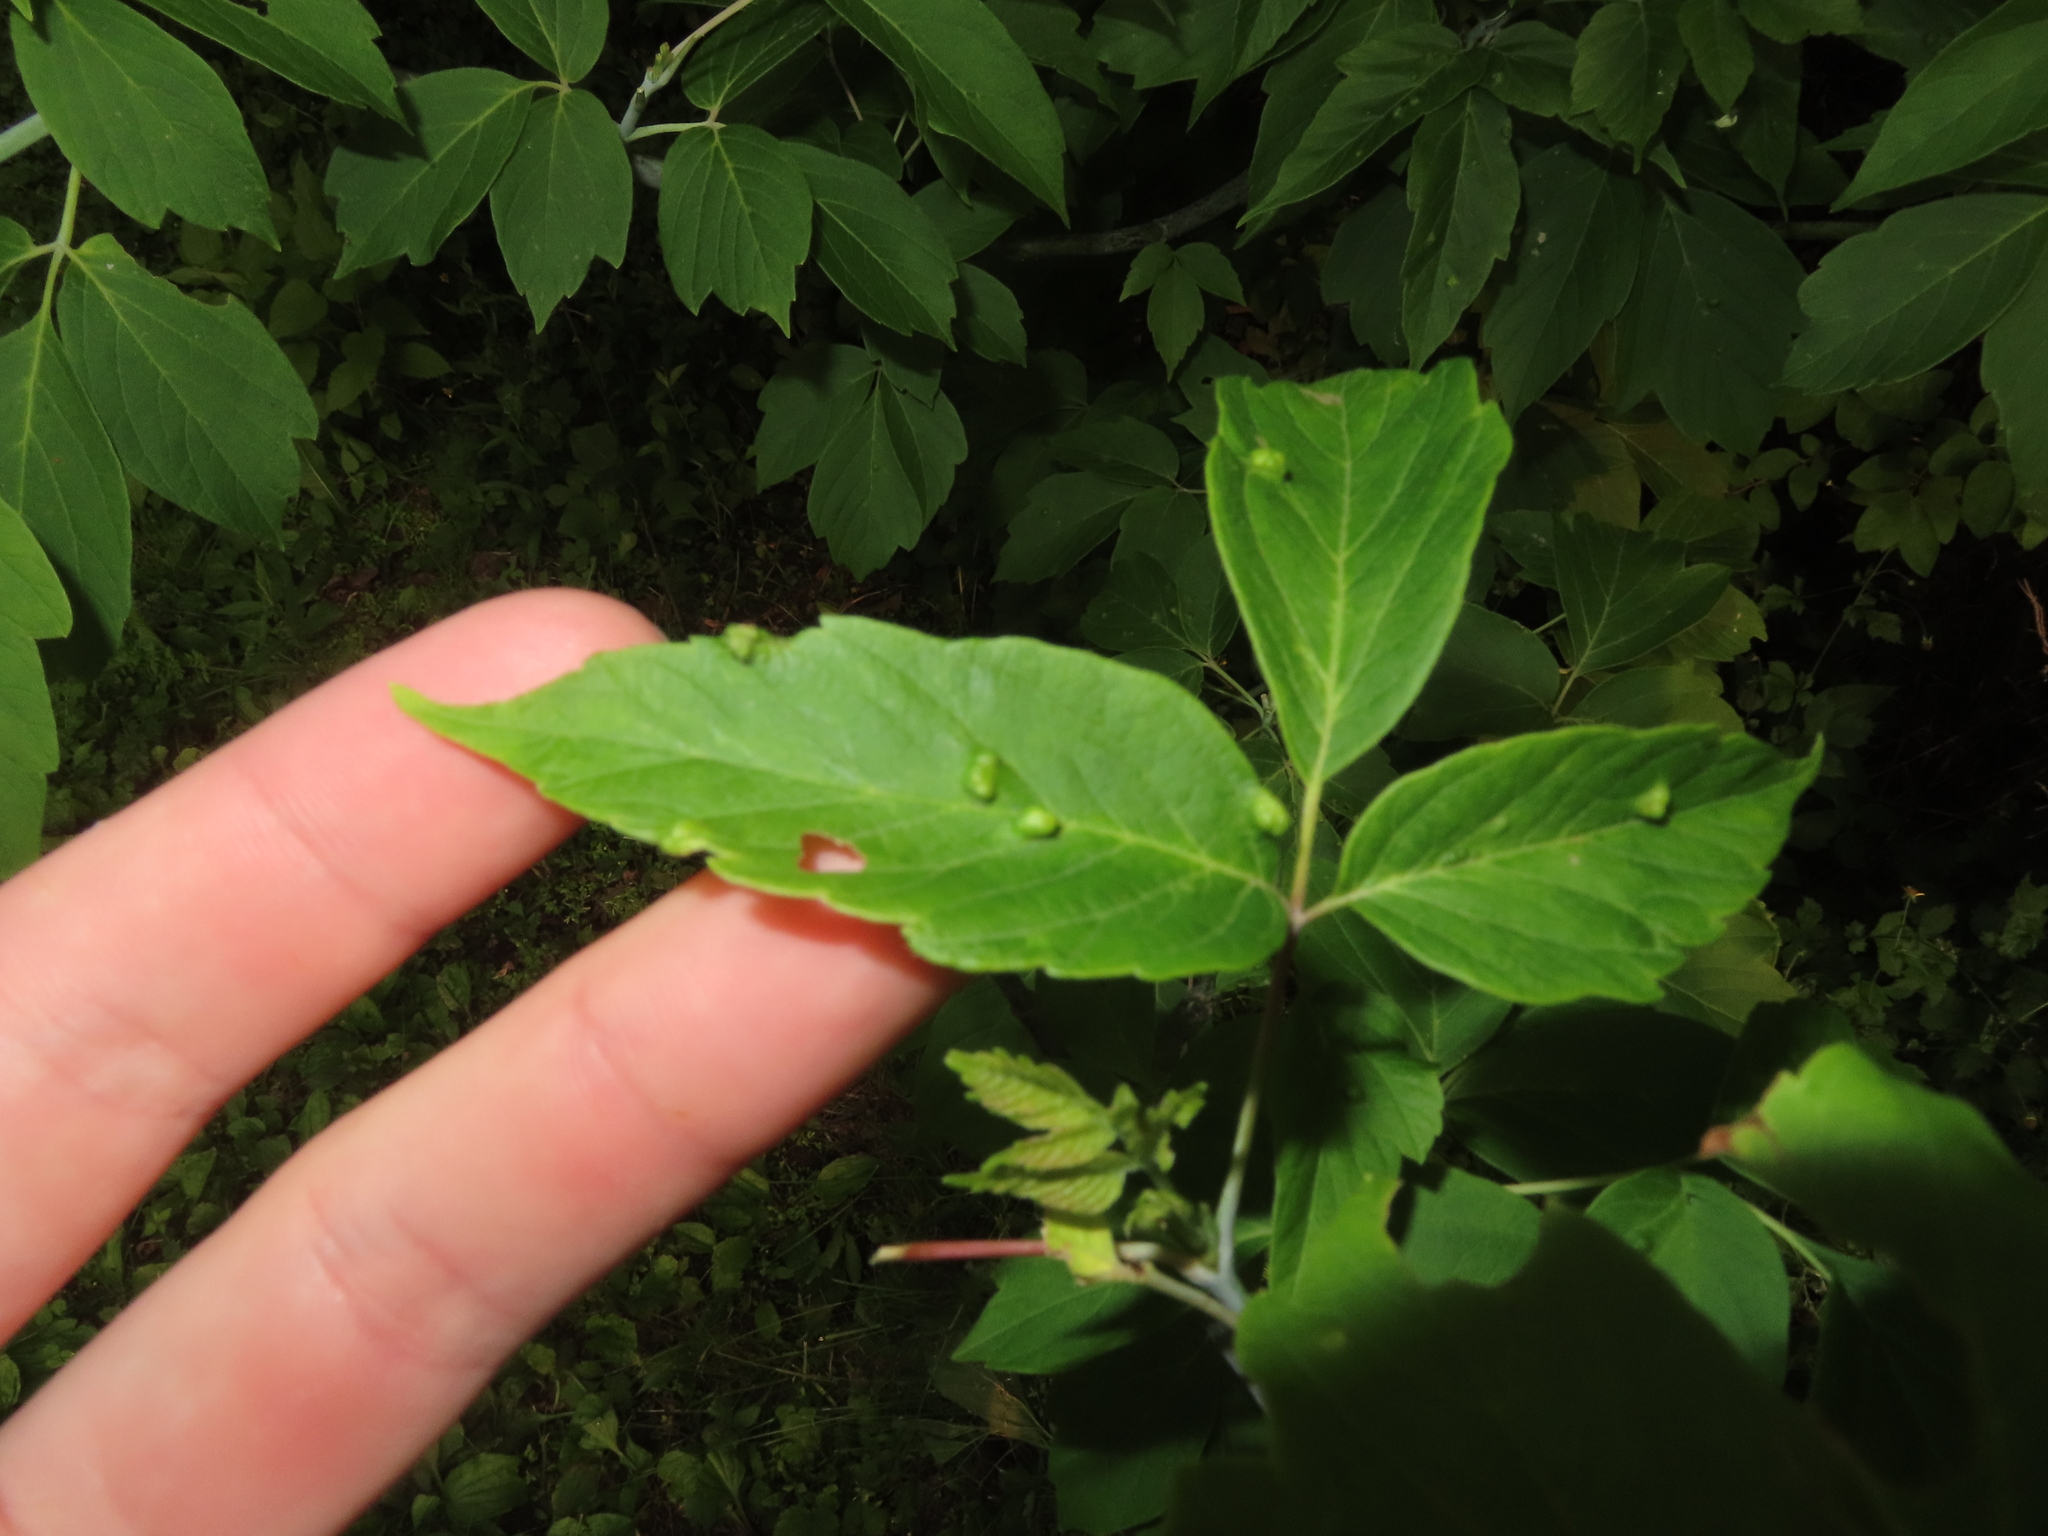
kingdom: Animalia
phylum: Arthropoda
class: Arachnida
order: Trombidiformes
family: Eriophyidae
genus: Aceria
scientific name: Aceria
